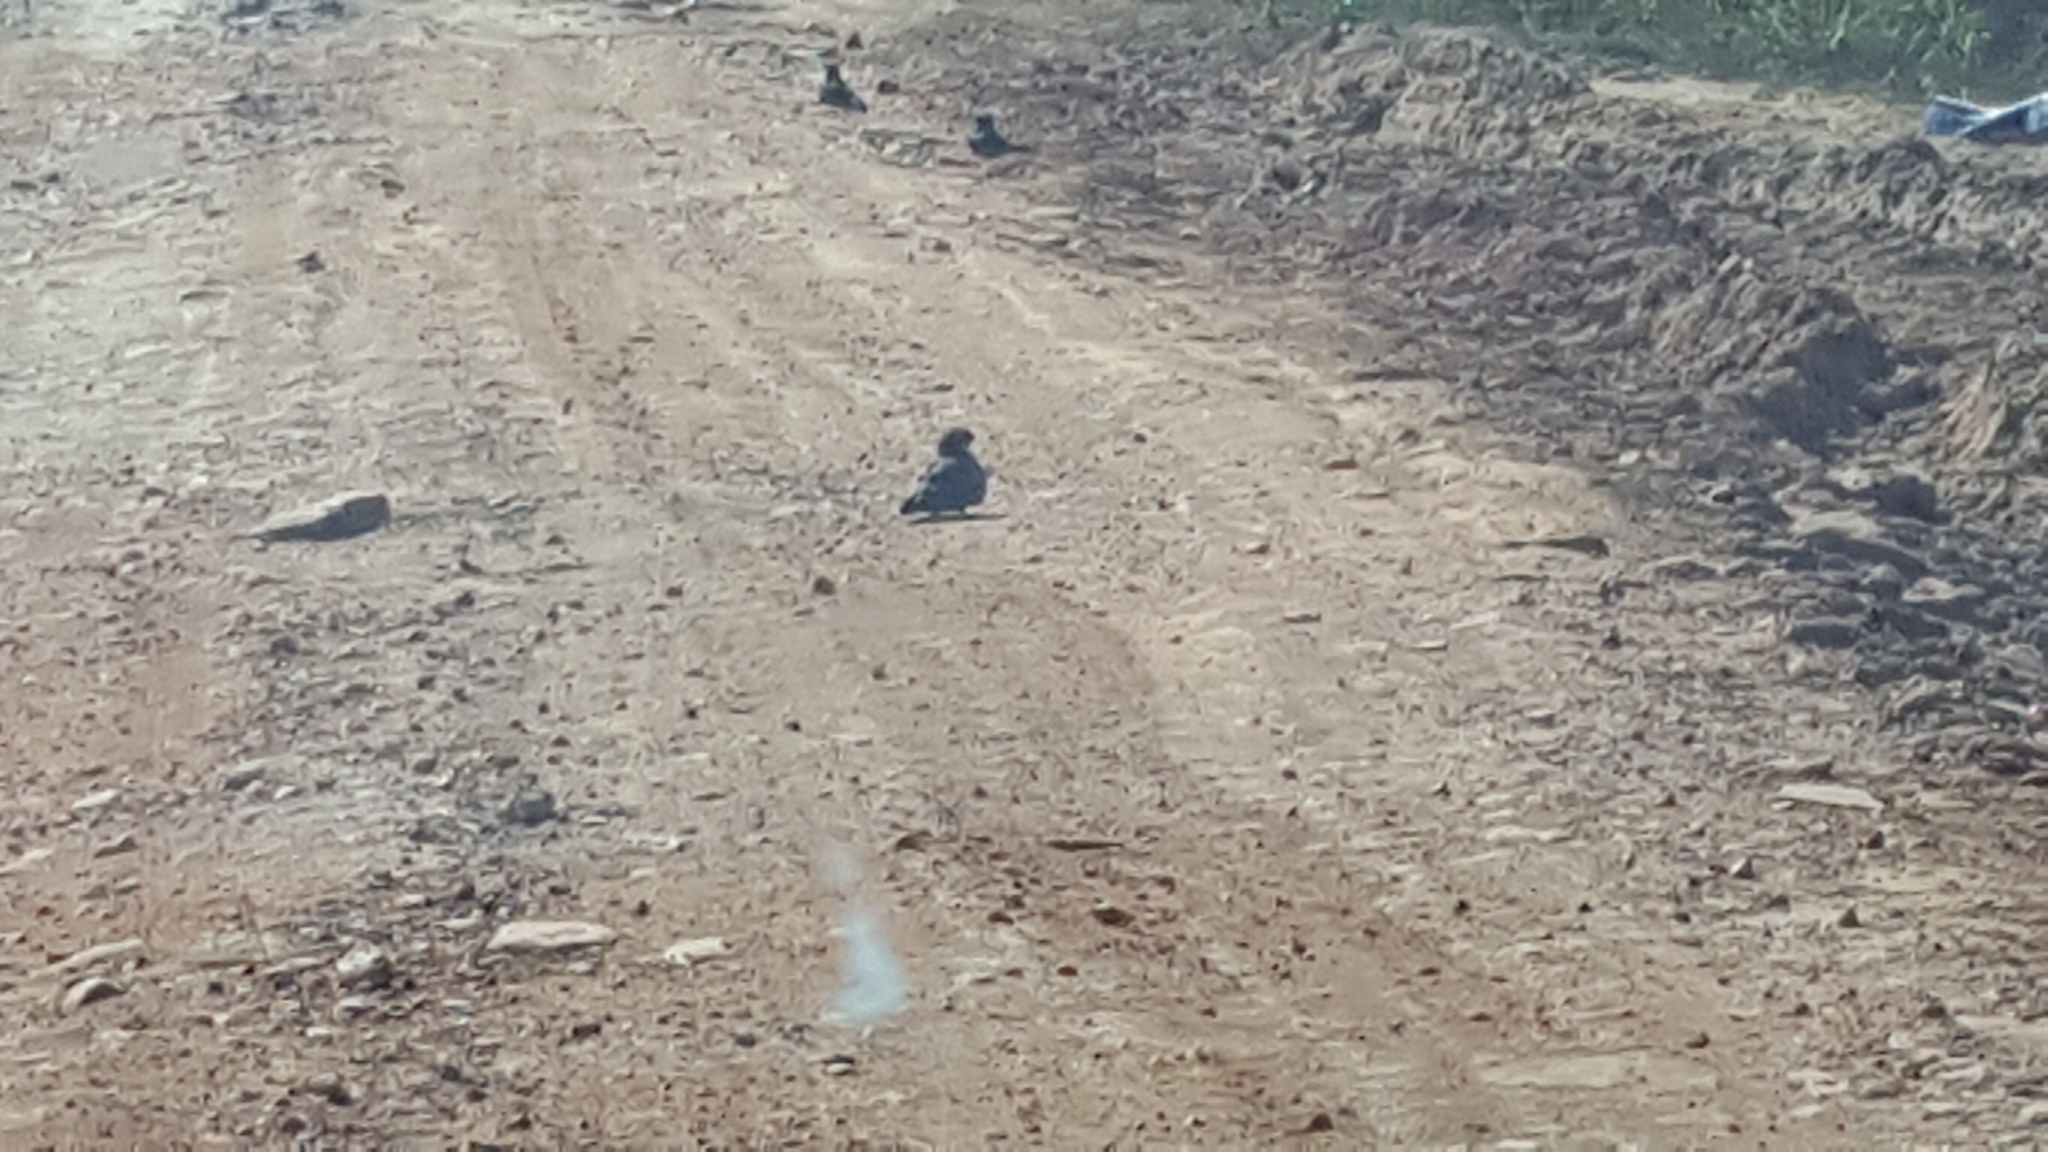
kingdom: Animalia
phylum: Chordata
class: Aves
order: Caprimulgiformes
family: Caprimulgidae
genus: Chordeiles
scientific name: Chordeiles nacunda
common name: Nacunda nighthawk
